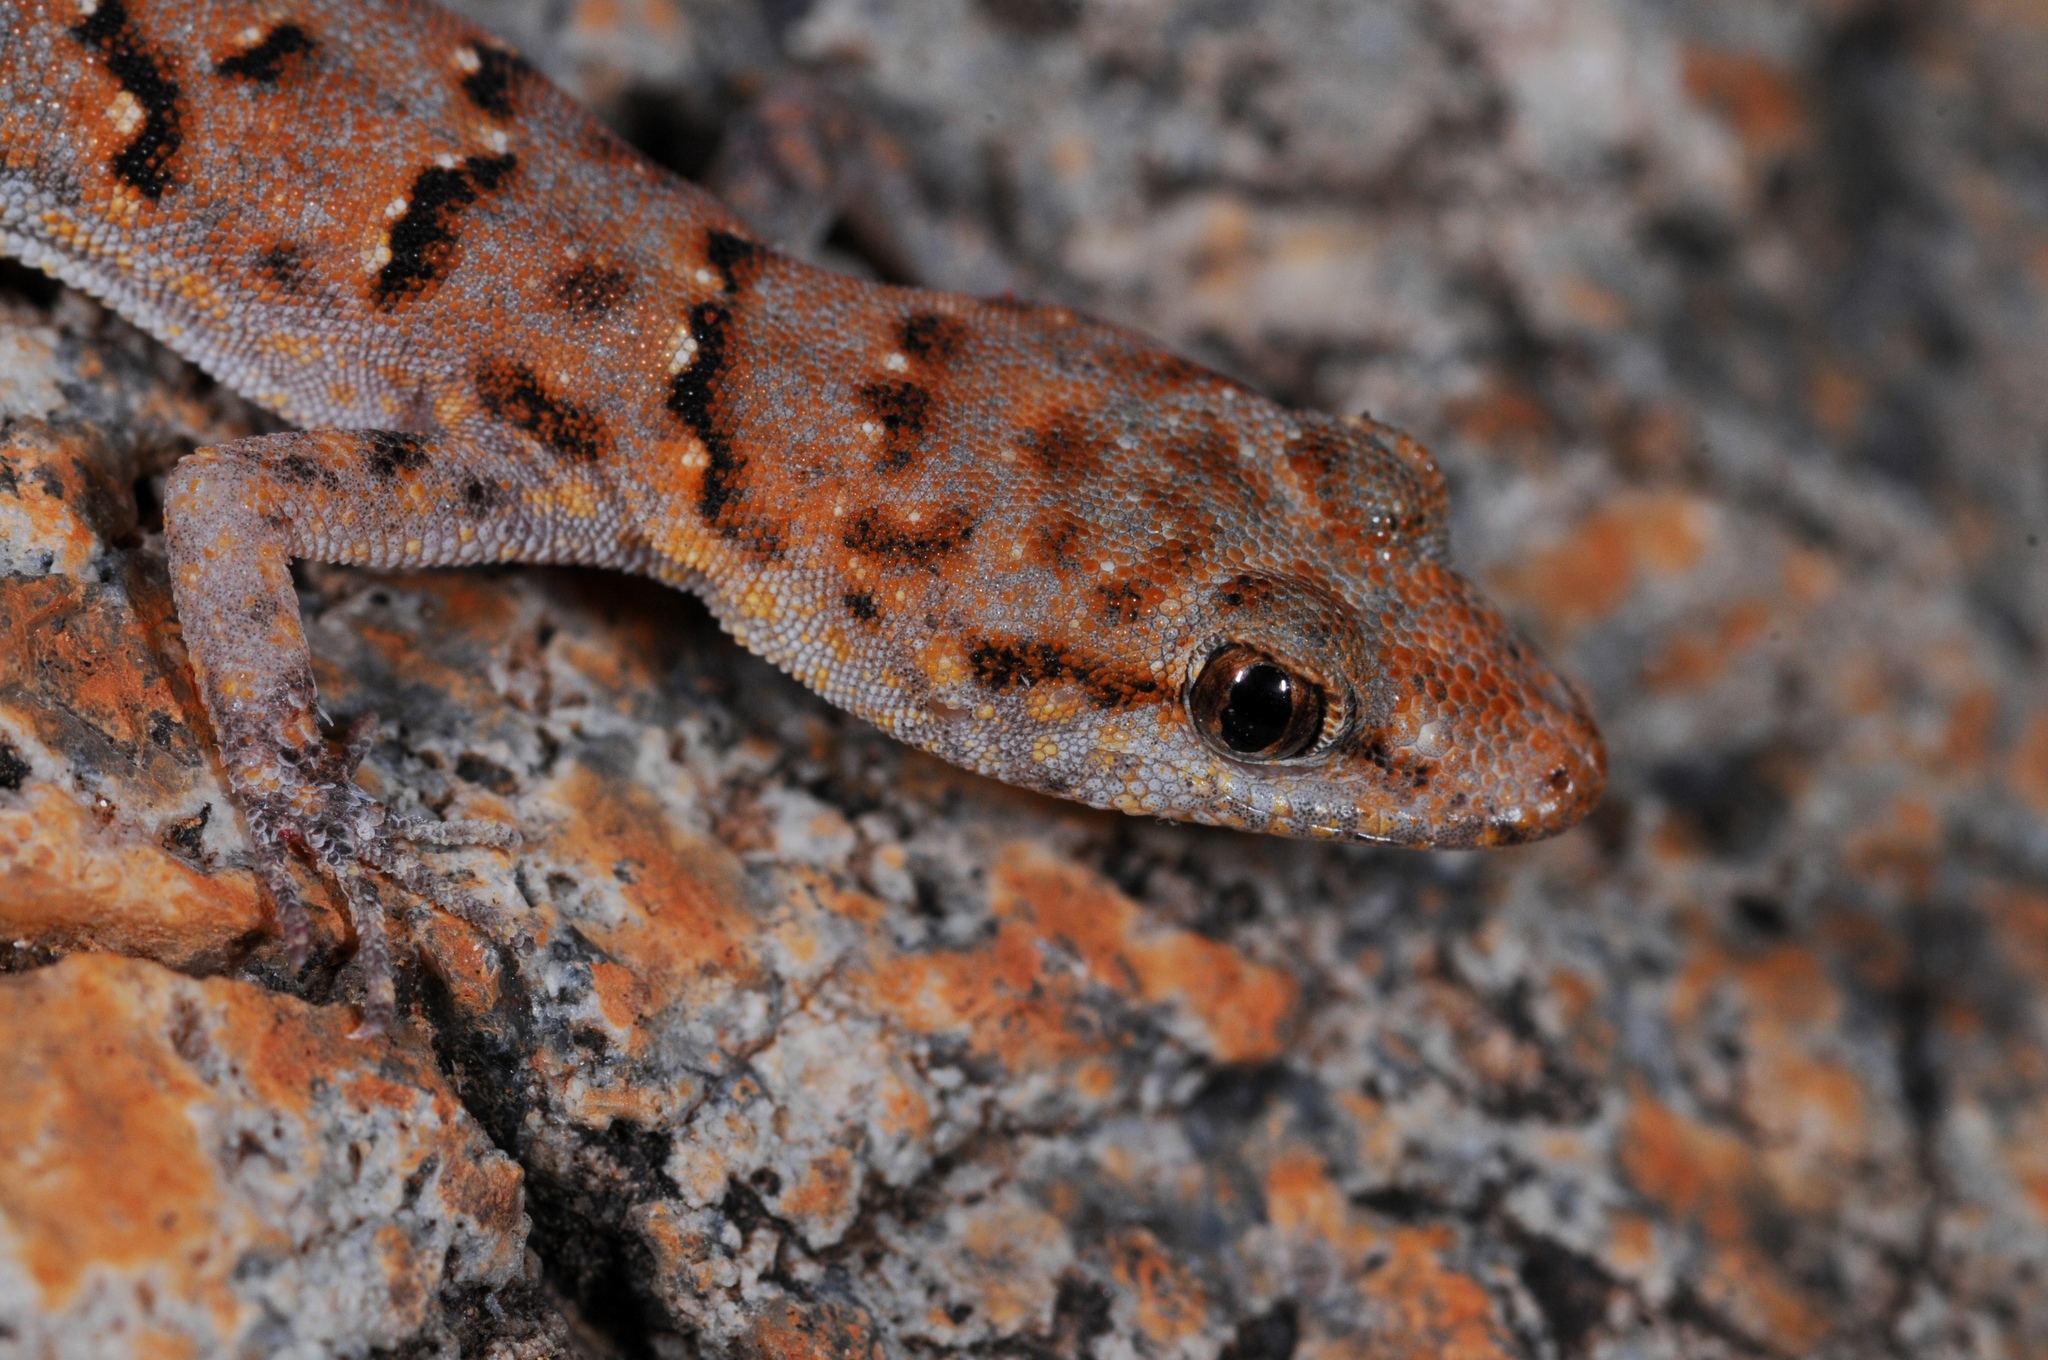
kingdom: Animalia
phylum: Chordata
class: Squamata
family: Gekkonidae
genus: Narudasia
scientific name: Narudasia festiva
